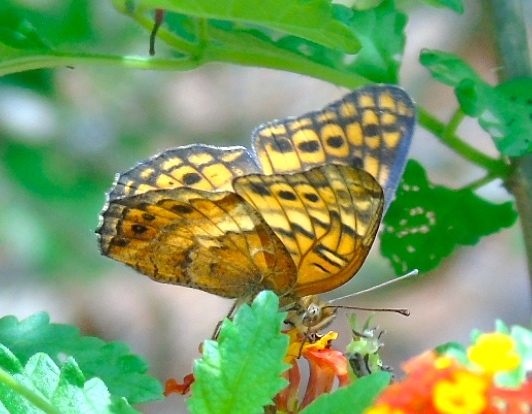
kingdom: Animalia
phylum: Arthropoda
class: Insecta
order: Lepidoptera
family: Nymphalidae
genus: Euptoieta
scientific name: Euptoieta claudia
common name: Variegated fritillary
